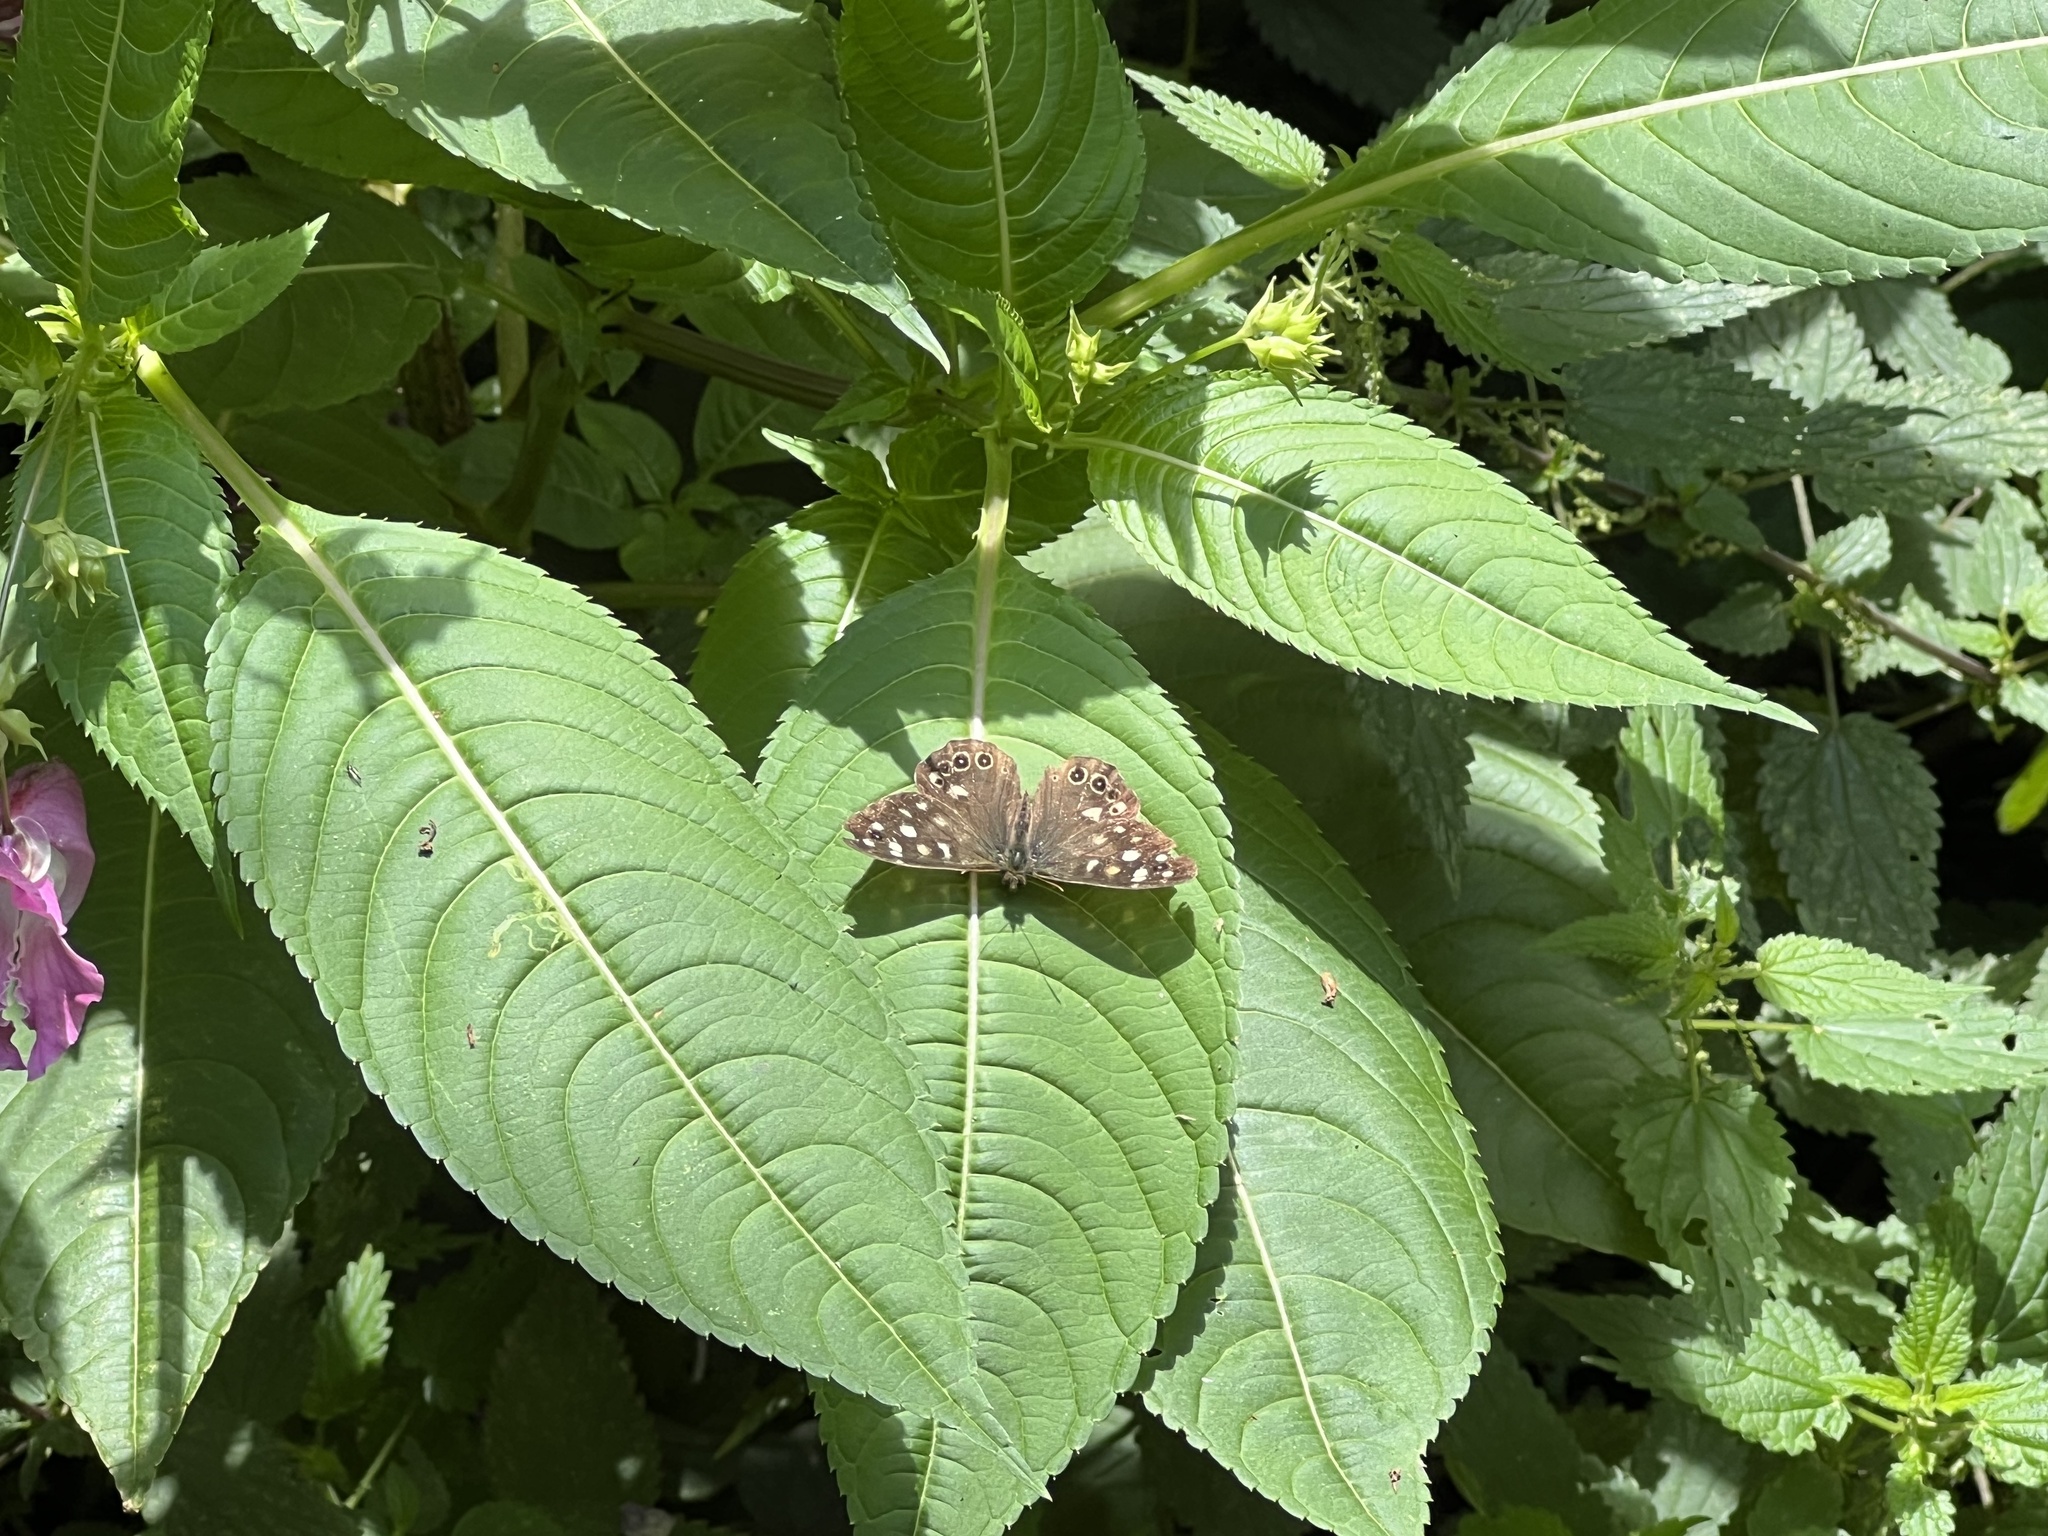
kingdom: Animalia
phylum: Arthropoda
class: Insecta
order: Lepidoptera
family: Nymphalidae
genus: Pararge
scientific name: Pararge aegeria
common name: Speckled wood
